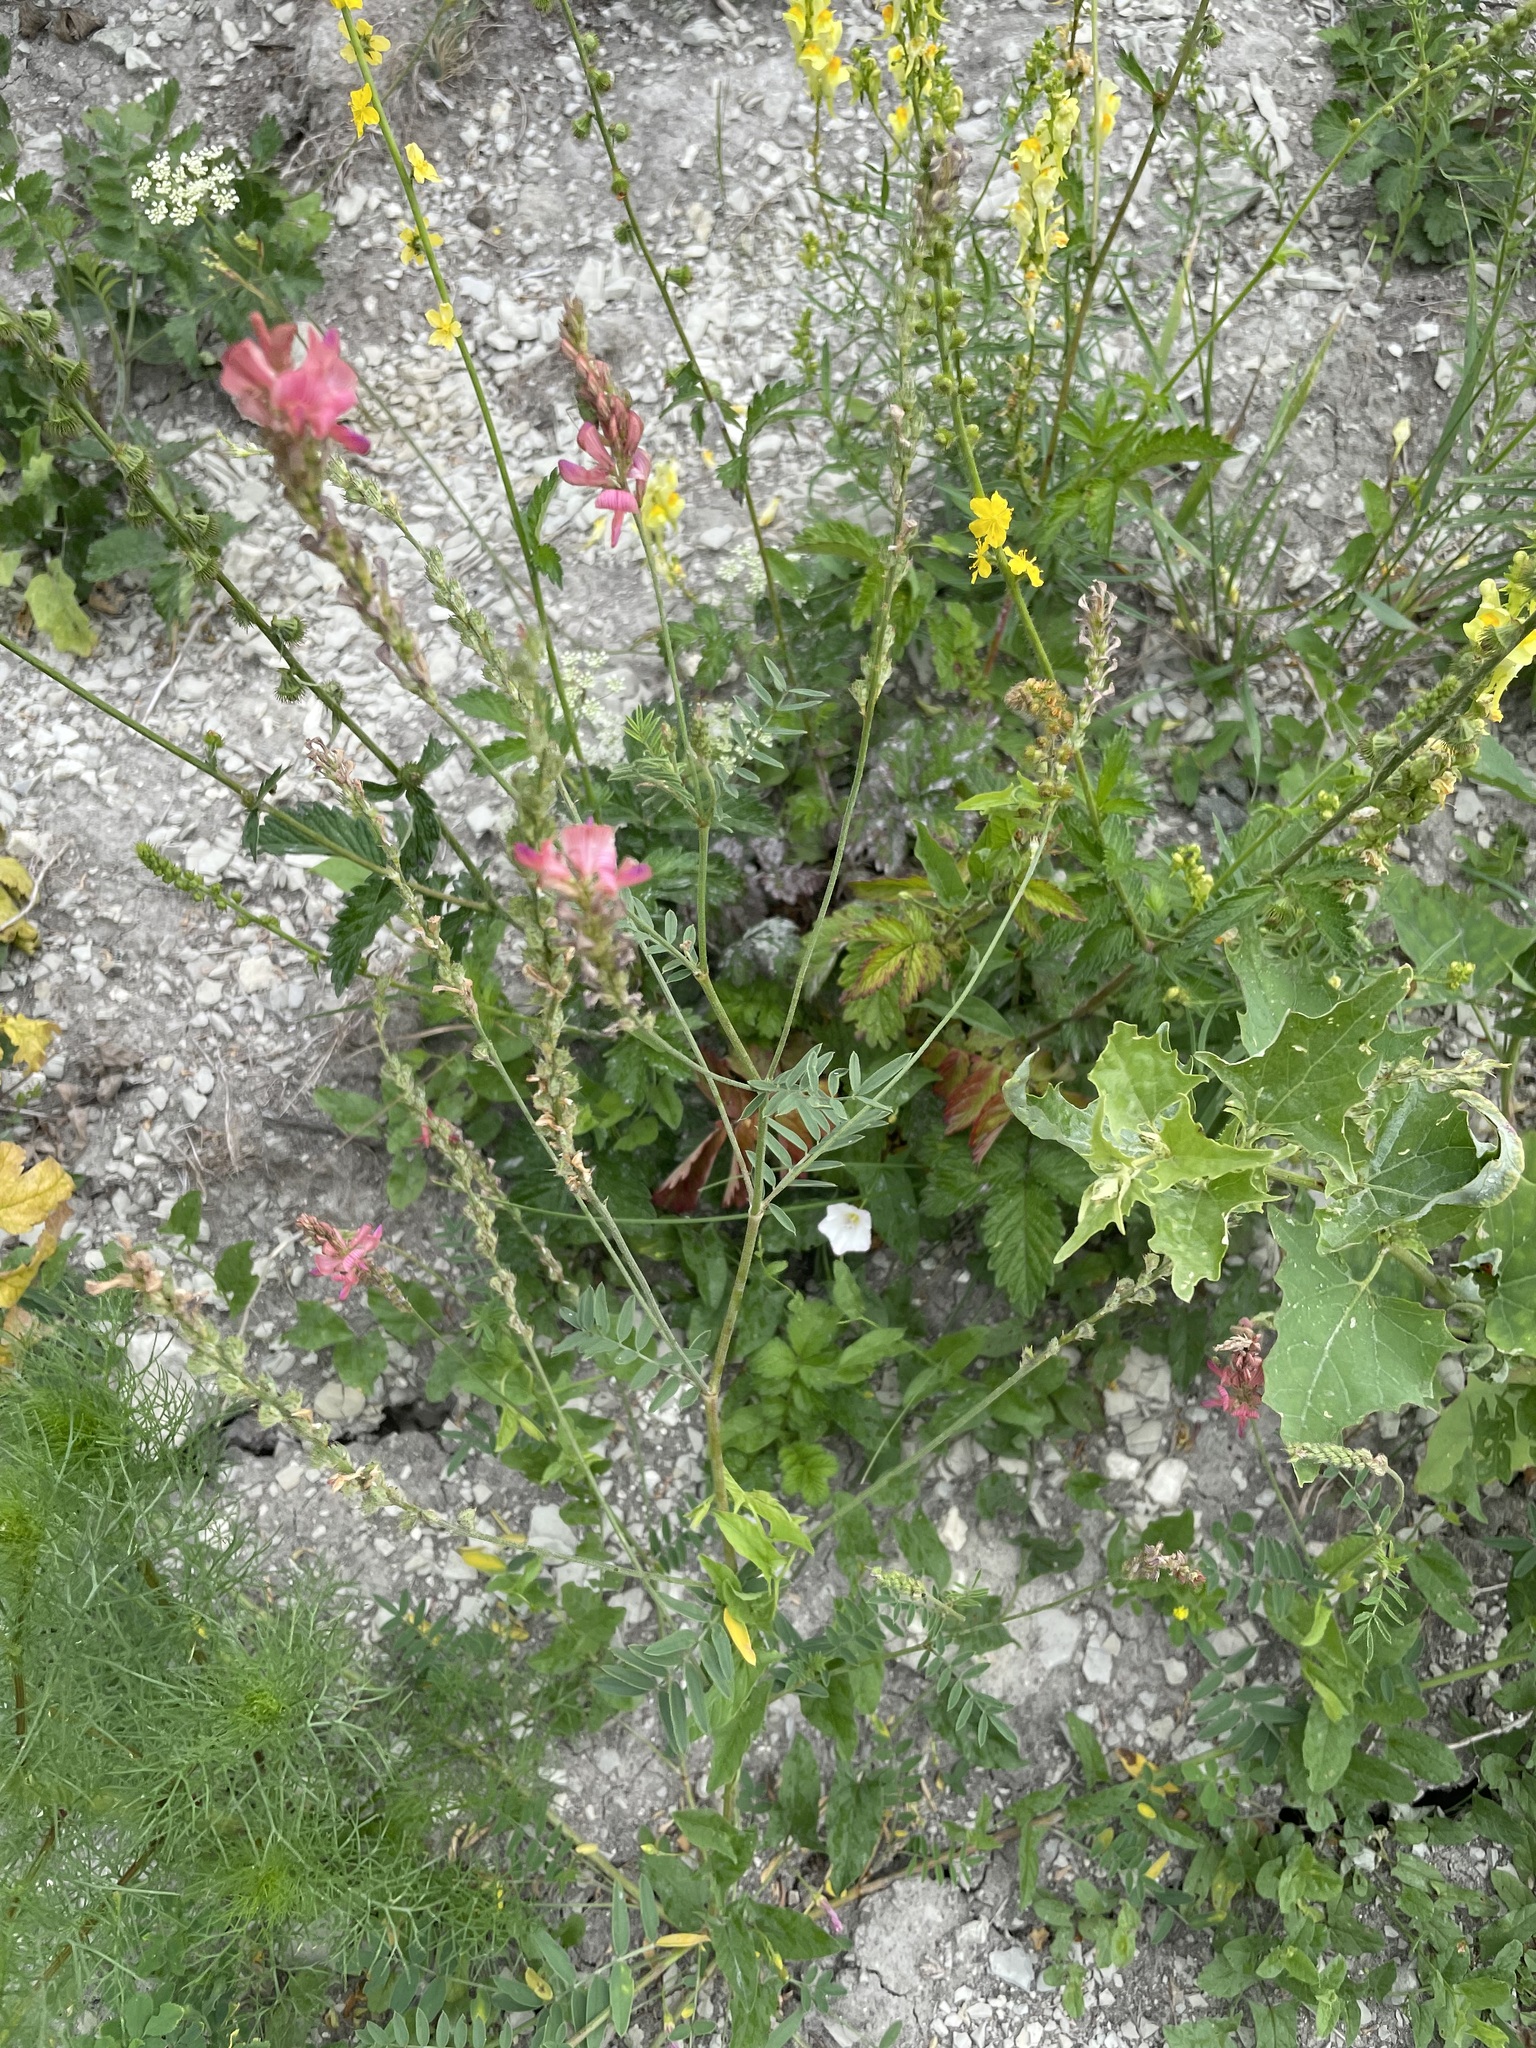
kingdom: Plantae
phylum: Tracheophyta
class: Magnoliopsida
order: Fabales
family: Fabaceae
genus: Onobrychis
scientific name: Onobrychis arenaria
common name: Sand esparcet
